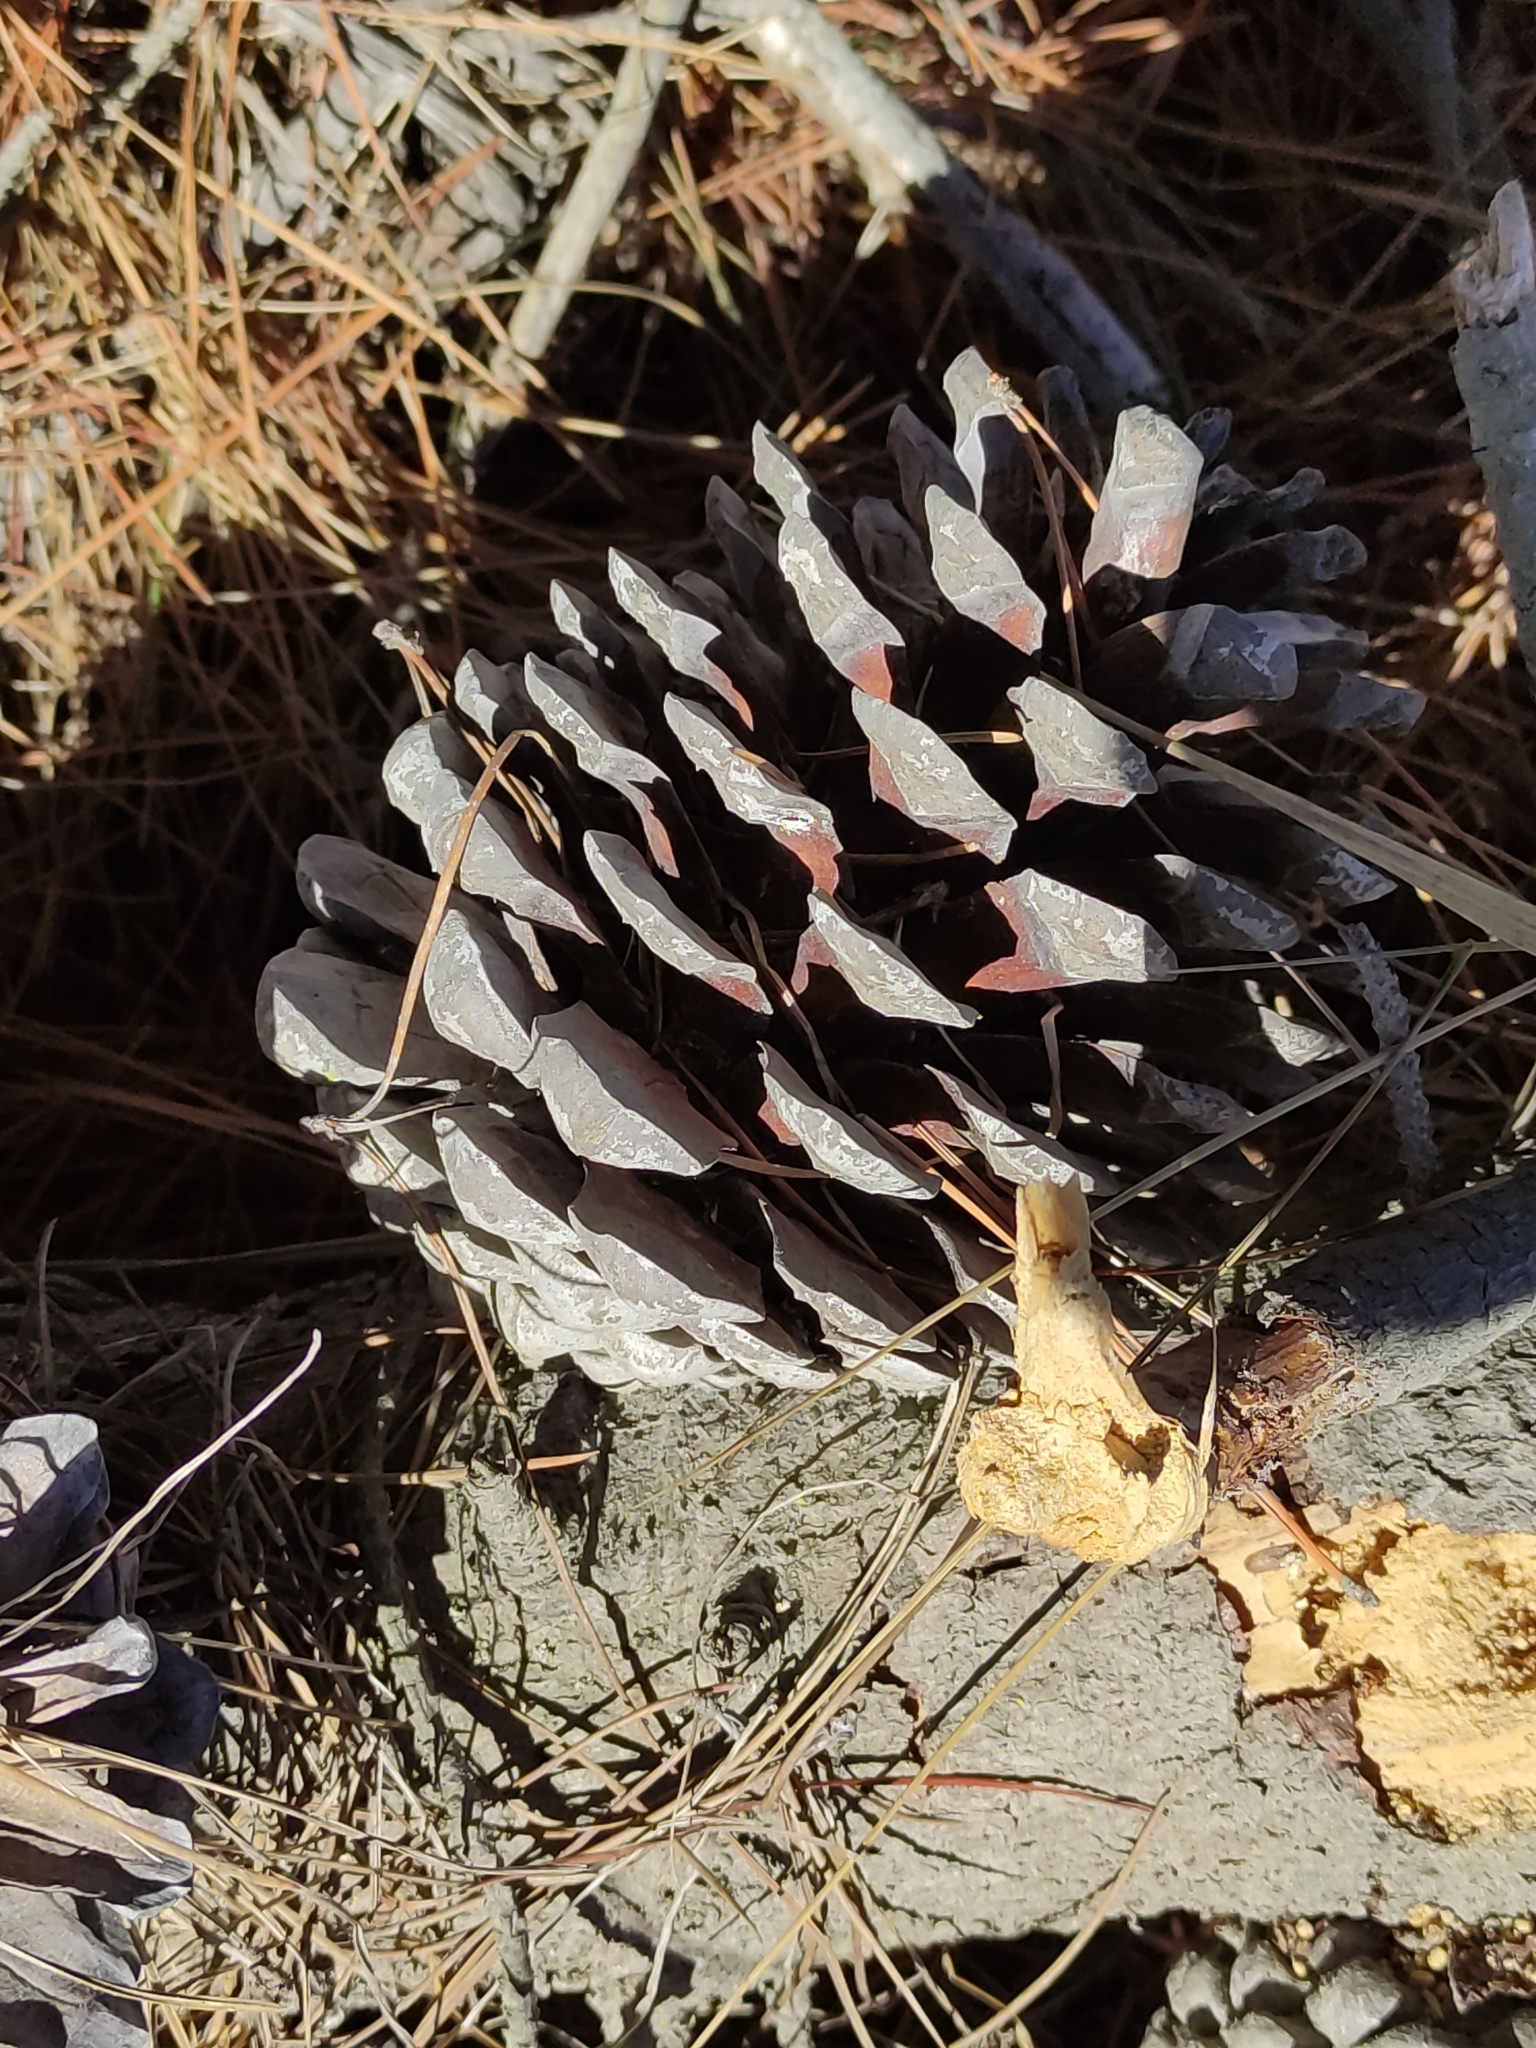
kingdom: Plantae
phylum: Tracheophyta
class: Pinopsida
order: Pinales
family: Pinaceae
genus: Pinus
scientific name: Pinus radiata
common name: Monterey pine
